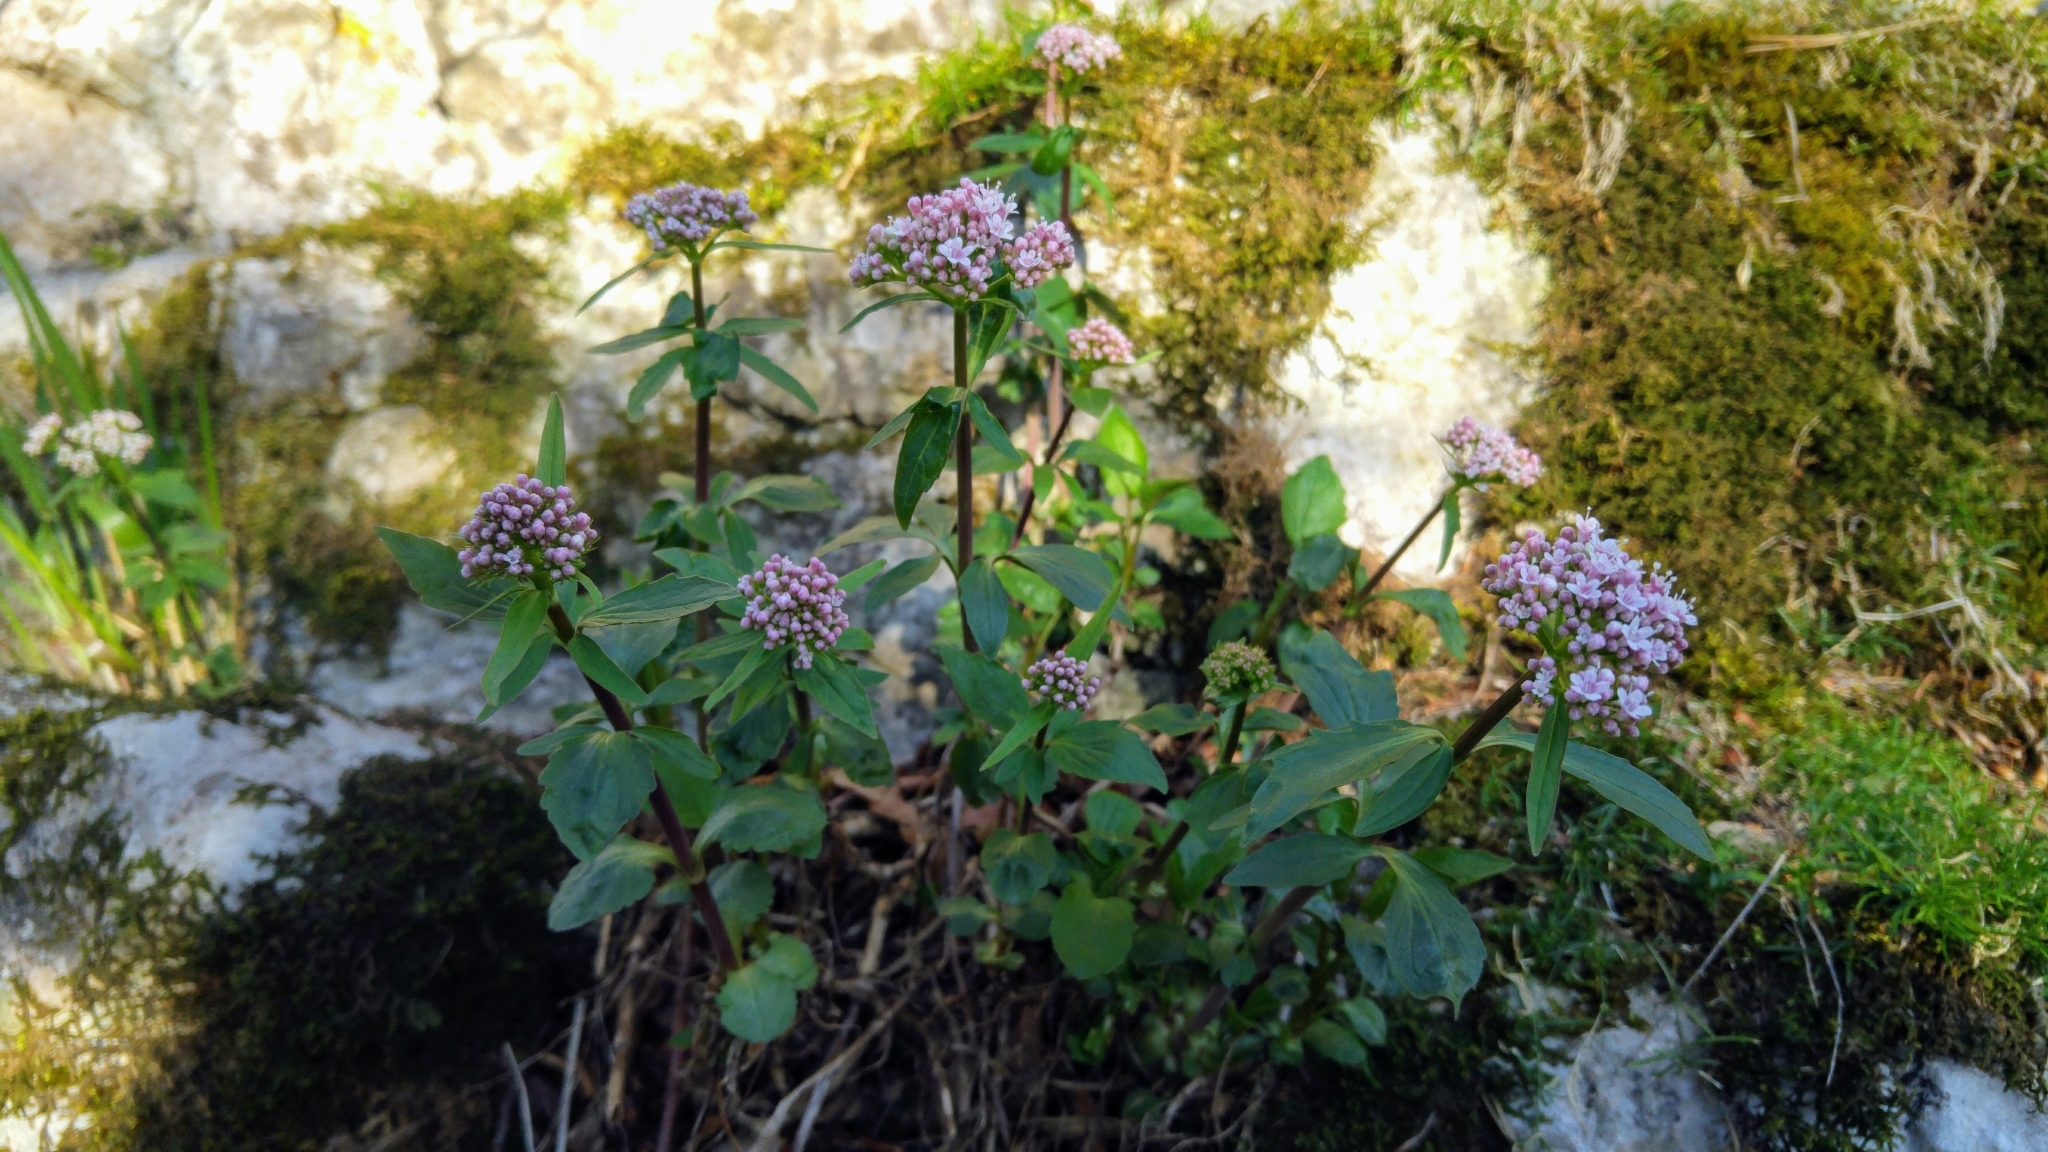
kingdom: Plantae
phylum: Tracheophyta
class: Magnoliopsida
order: Dipsacales
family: Caprifoliaceae
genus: Valeriana
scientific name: Valeriana tripteris
